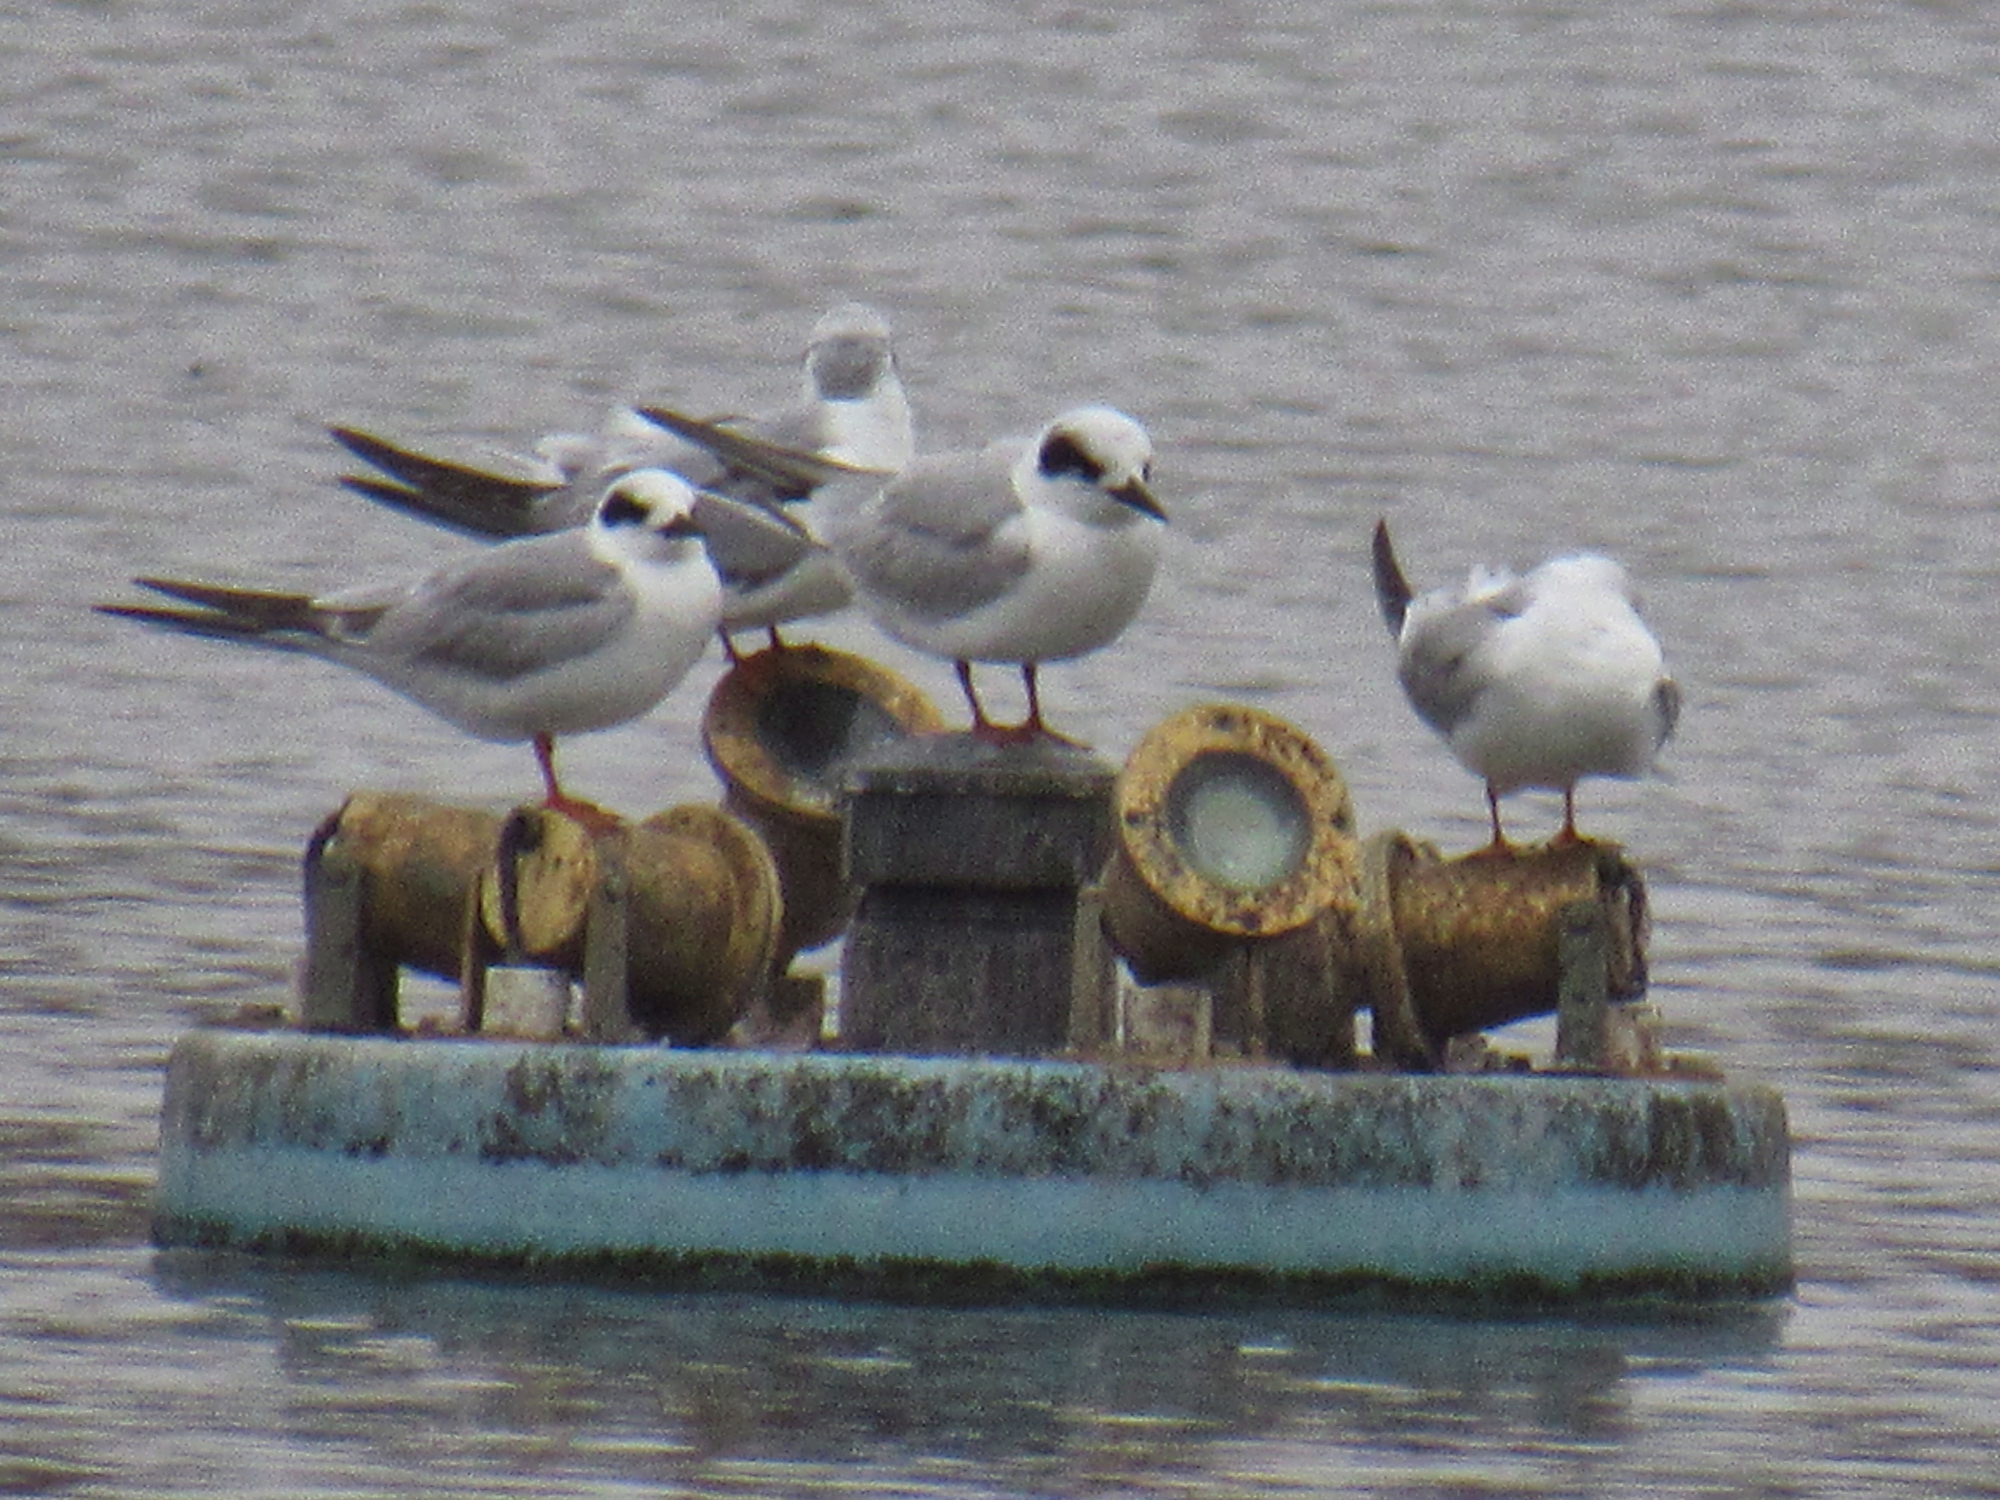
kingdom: Animalia
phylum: Chordata
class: Aves
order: Charadriiformes
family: Laridae
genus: Sterna
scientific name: Sterna forsteri
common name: Forster's tern
